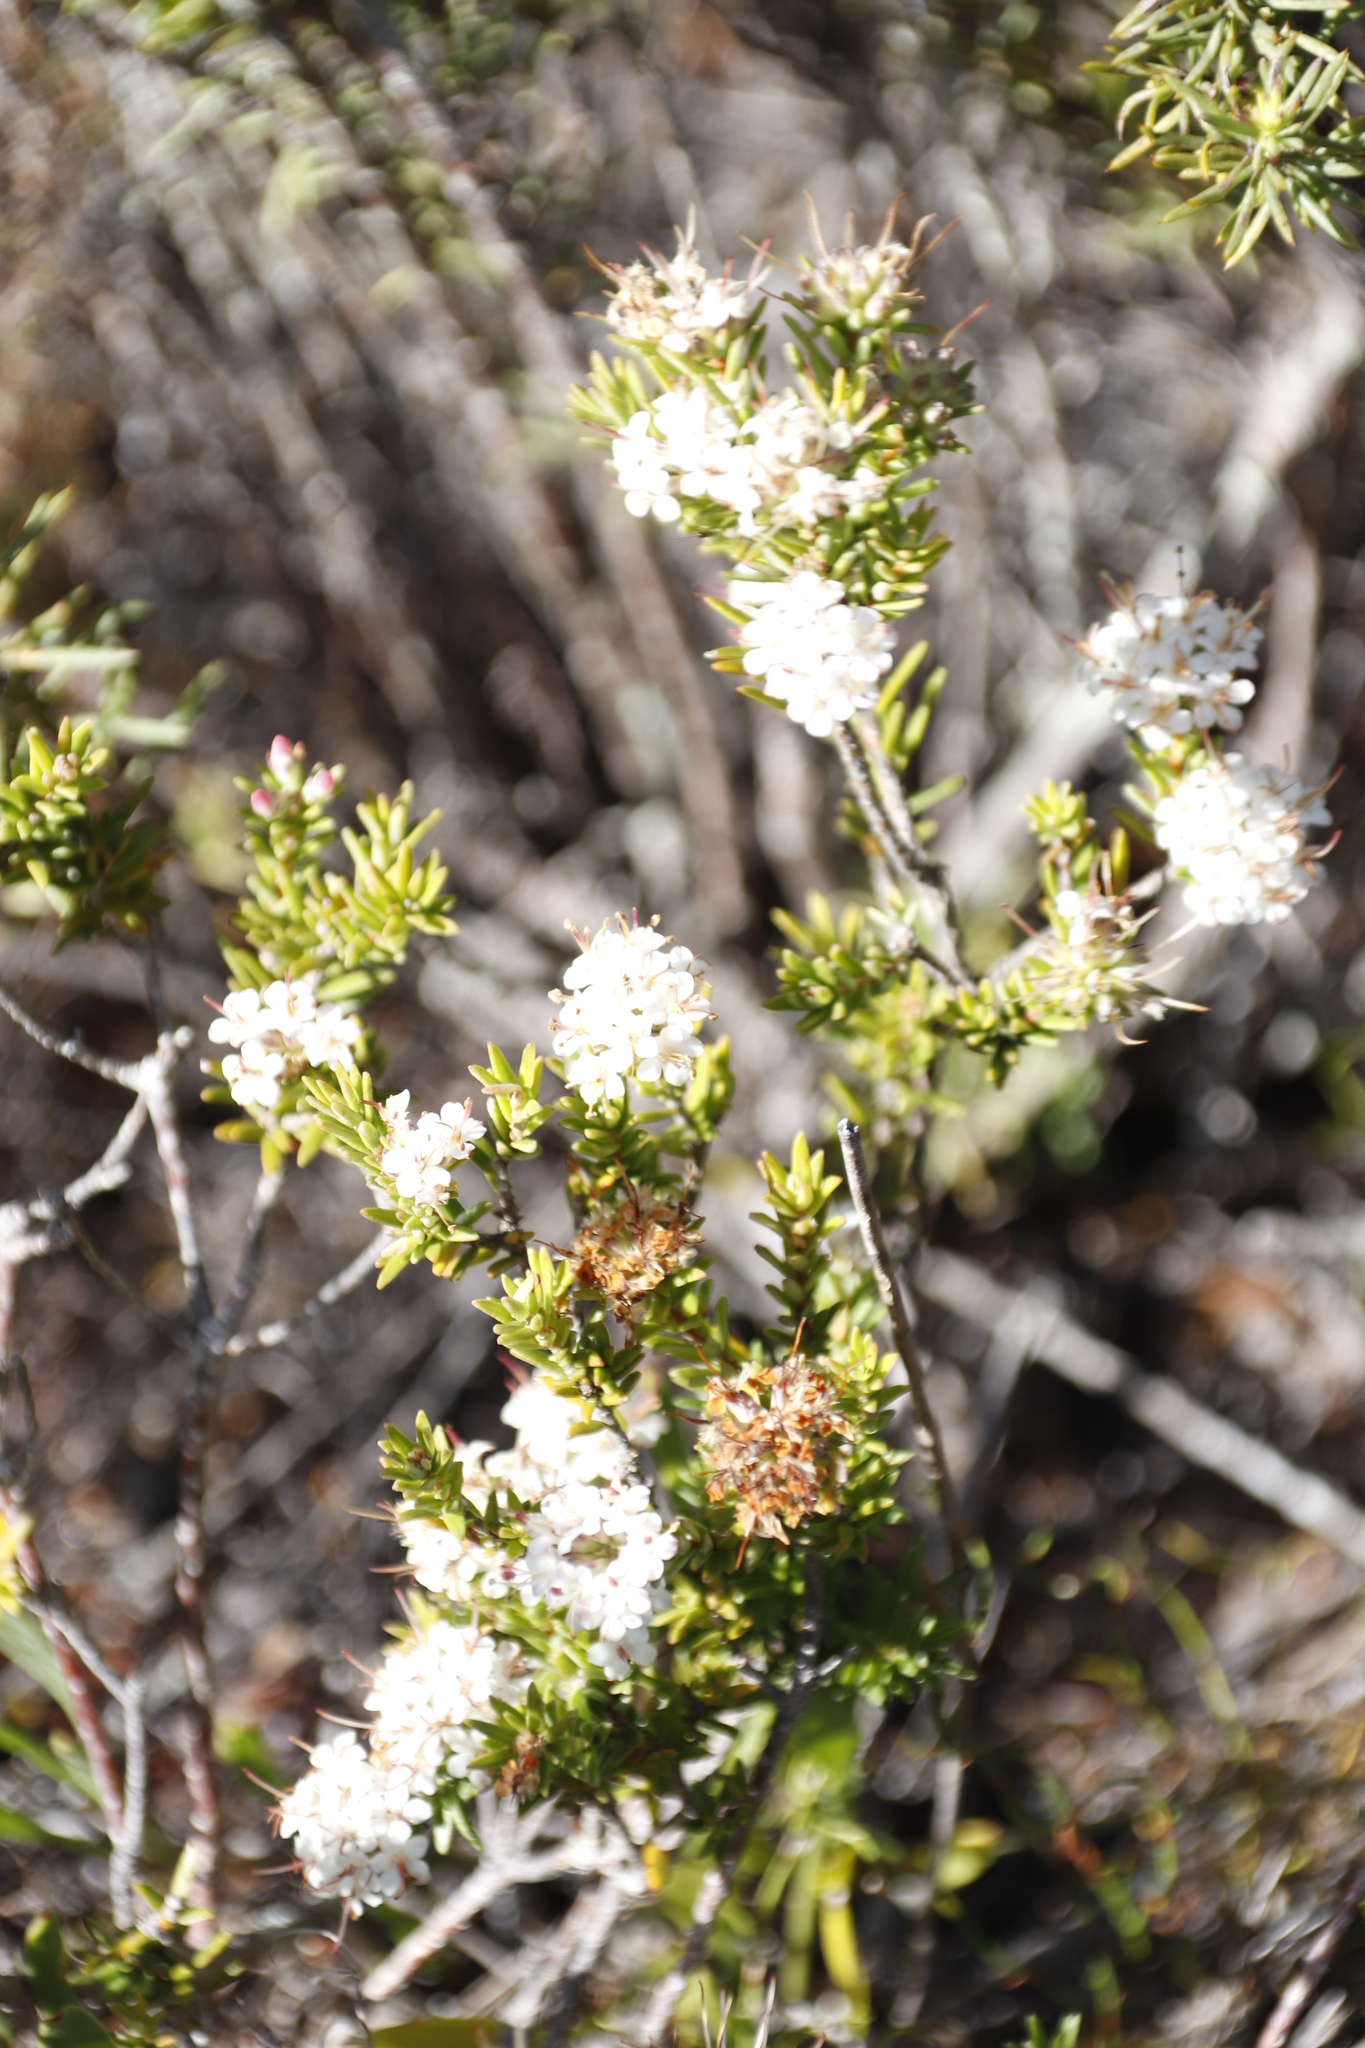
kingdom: Plantae
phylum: Tracheophyta
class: Magnoliopsida
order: Sapindales
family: Rutaceae
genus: Macrostylis
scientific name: Macrostylis villosa
